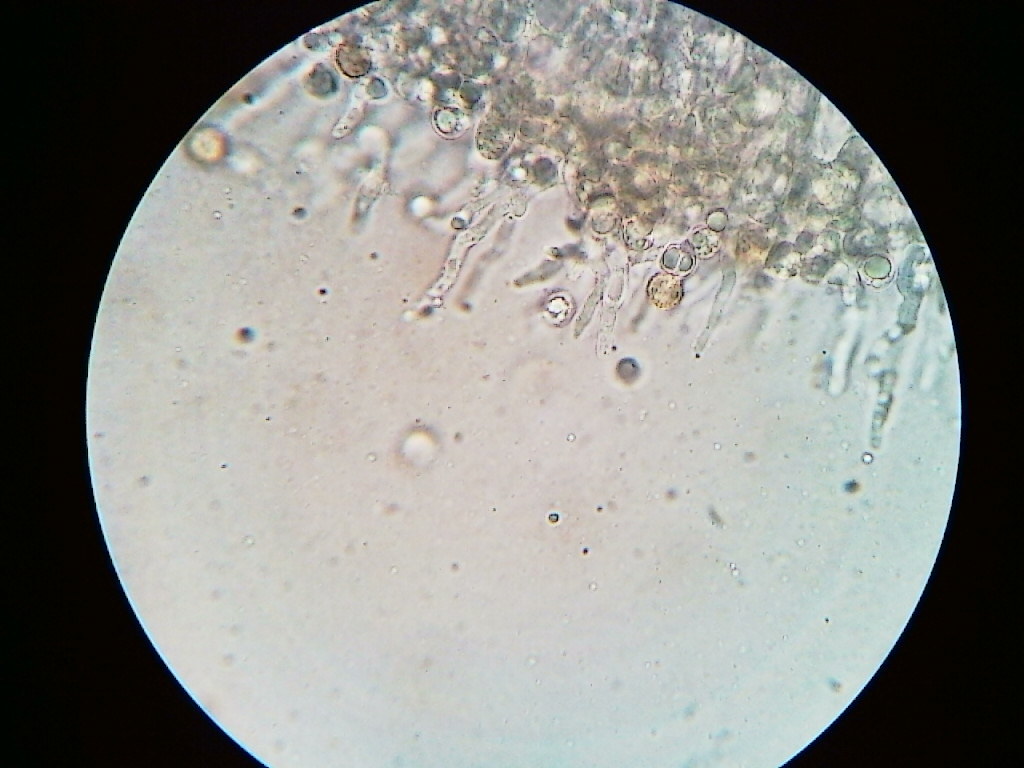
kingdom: Fungi
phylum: Basidiomycota
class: Agaricomycetes
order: Agaricales
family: Radulomycetaceae
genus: Radulomyces
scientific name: Radulomyces copelandii
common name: Asian beauty
